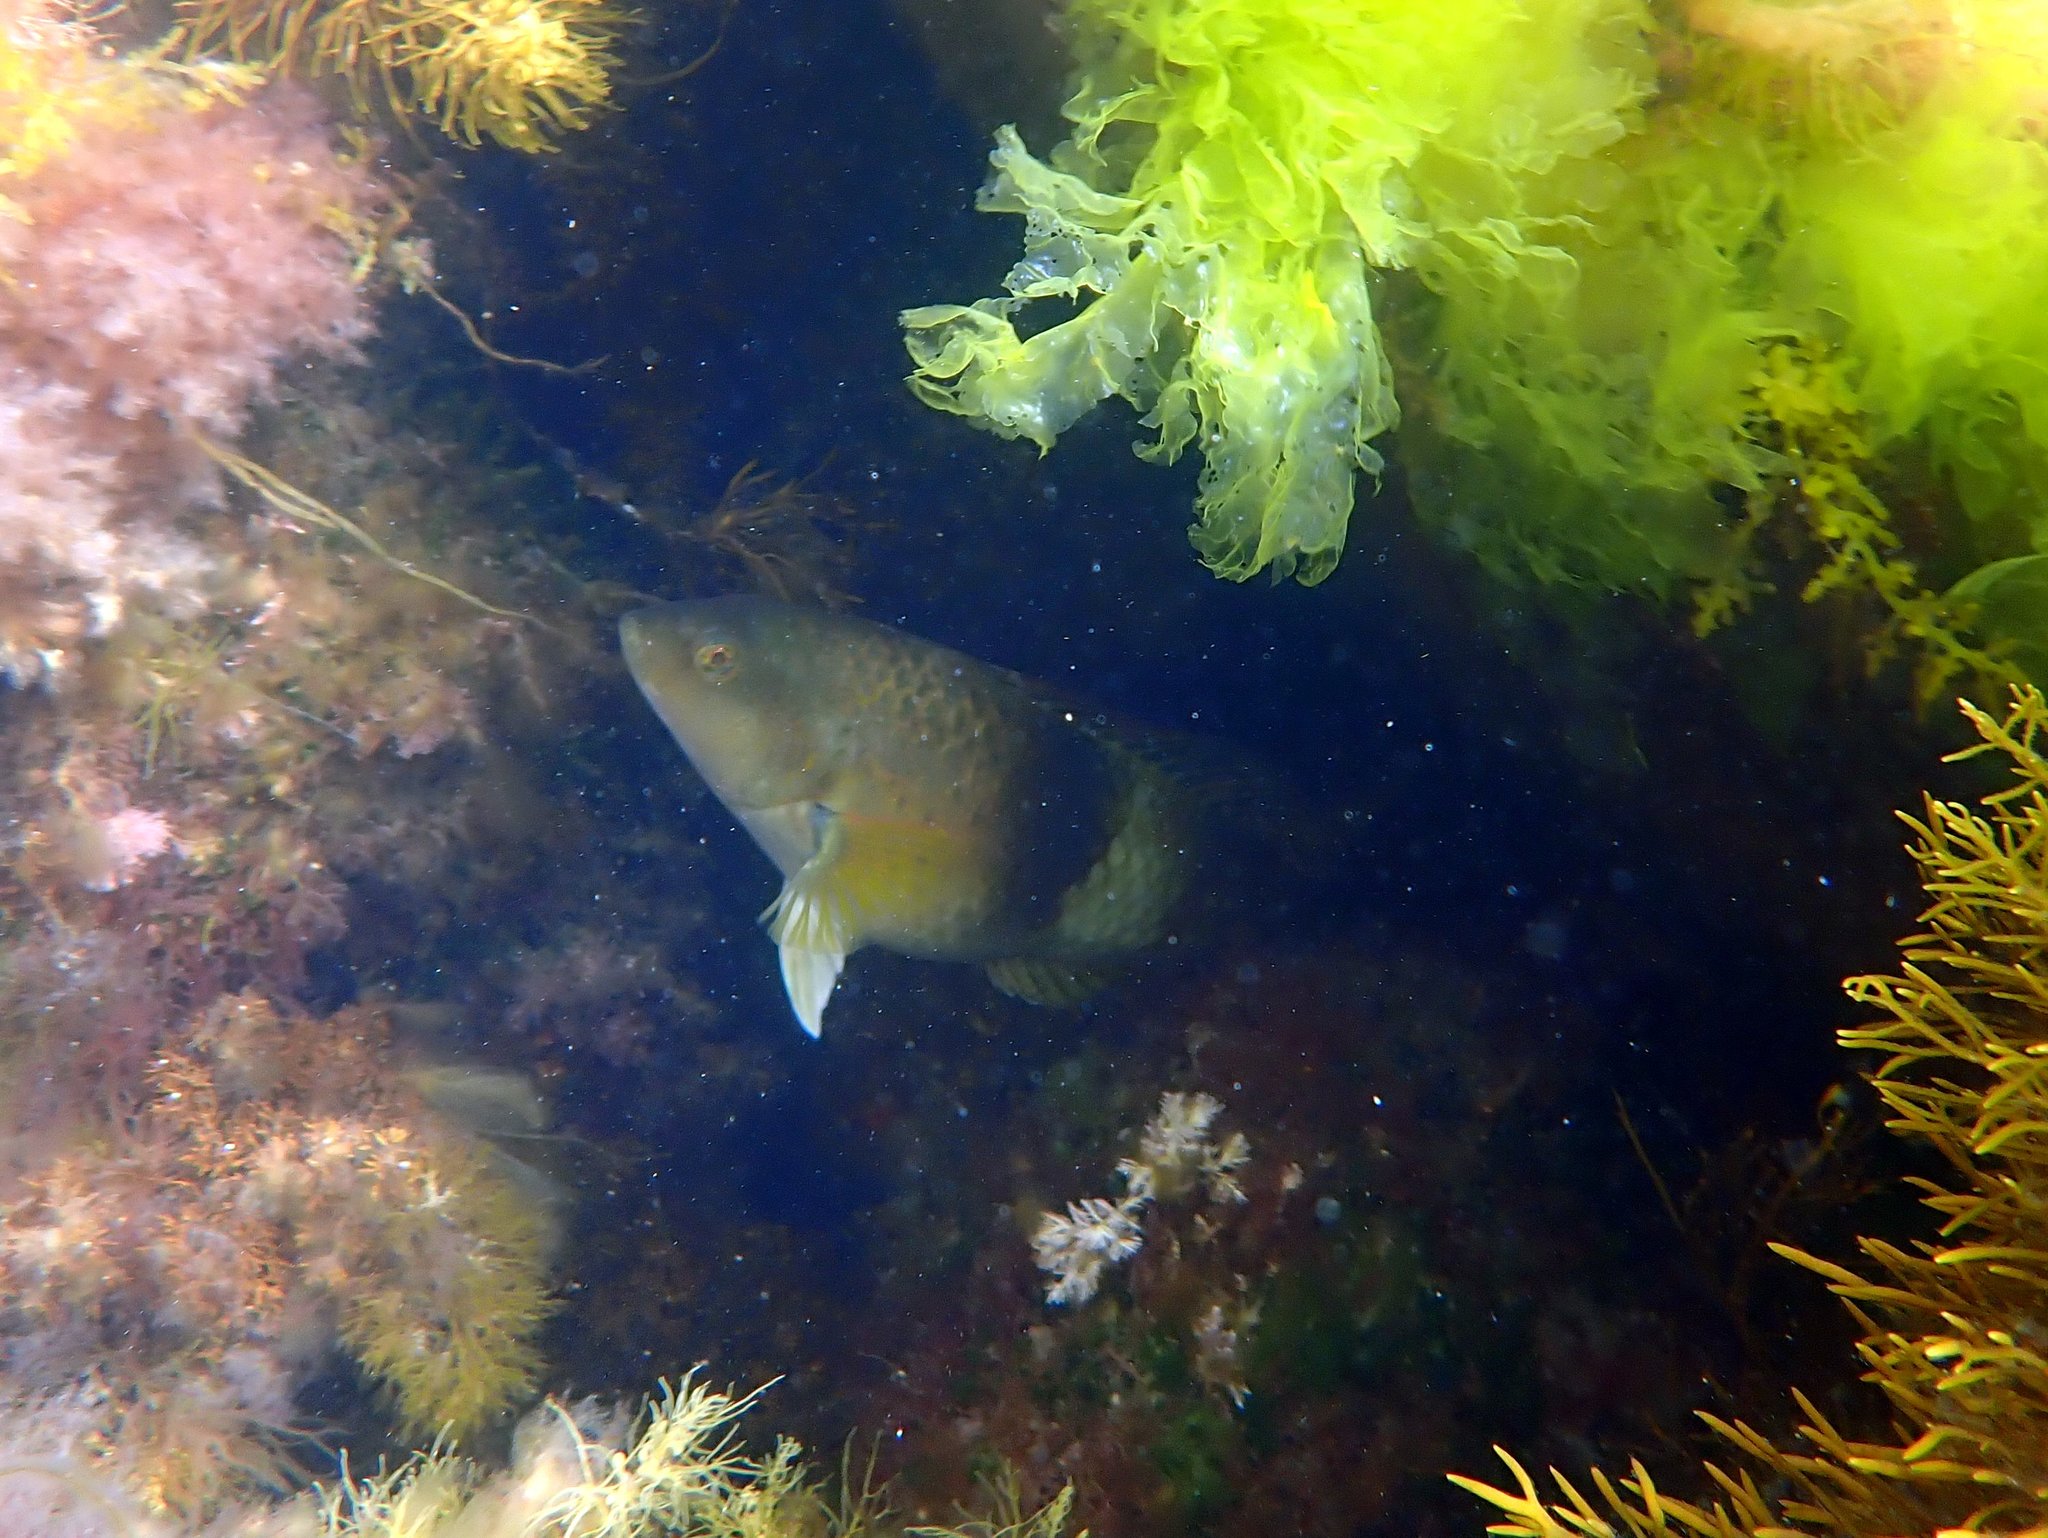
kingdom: Animalia
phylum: Chordata
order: Perciformes
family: Labridae
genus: Notolabrus
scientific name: Notolabrus tetricus
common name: Blue-throated parrotfish
